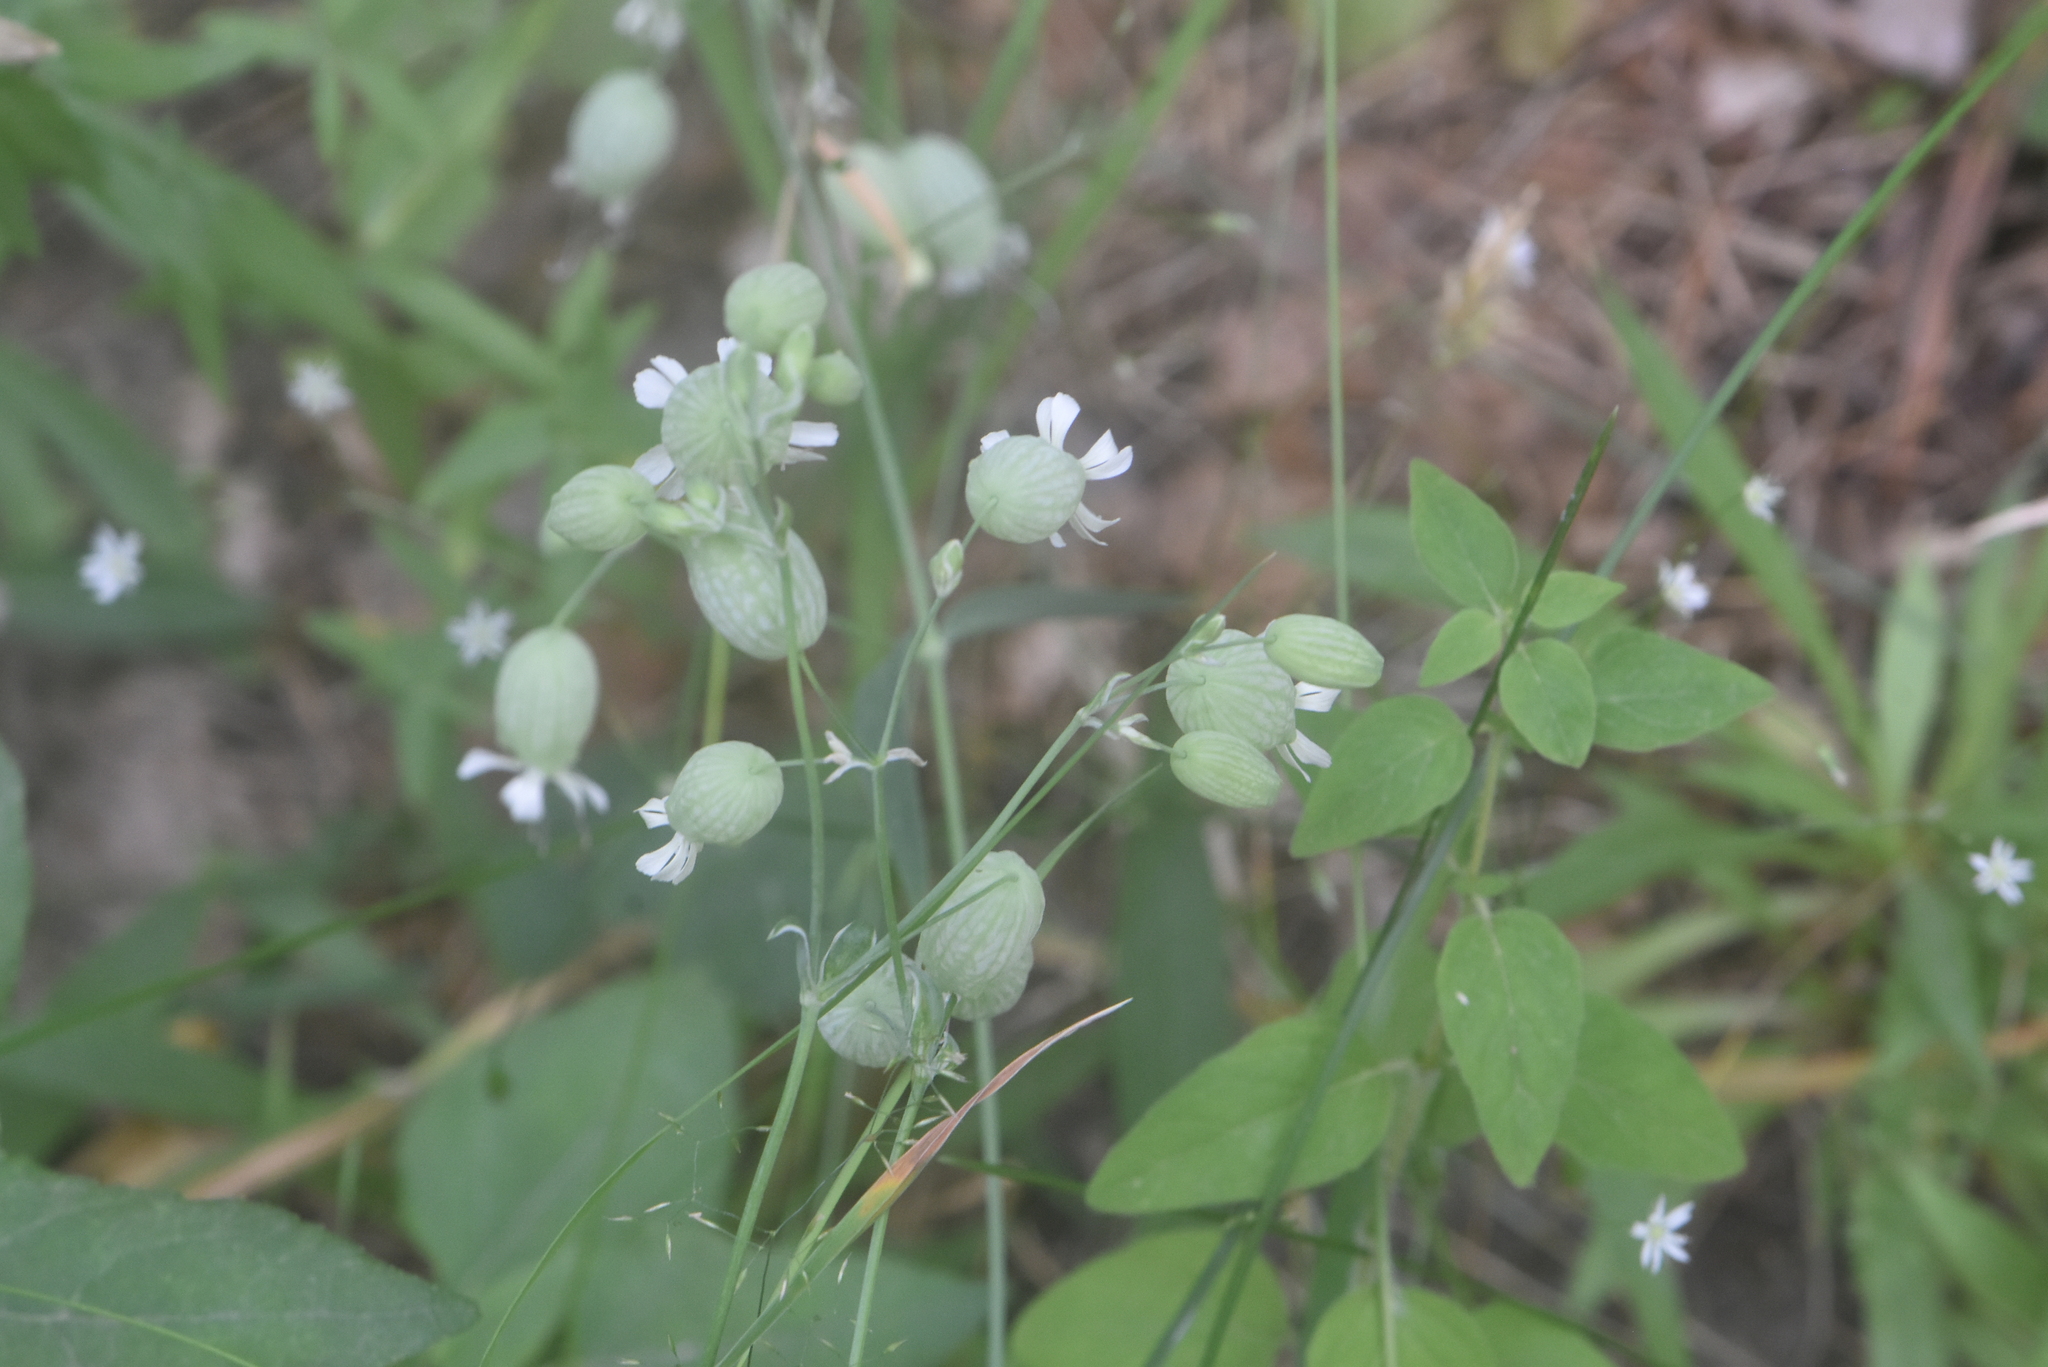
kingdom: Plantae
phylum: Tracheophyta
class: Magnoliopsida
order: Caryophyllales
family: Caryophyllaceae
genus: Silene
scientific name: Silene vulgaris
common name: Bladder campion
